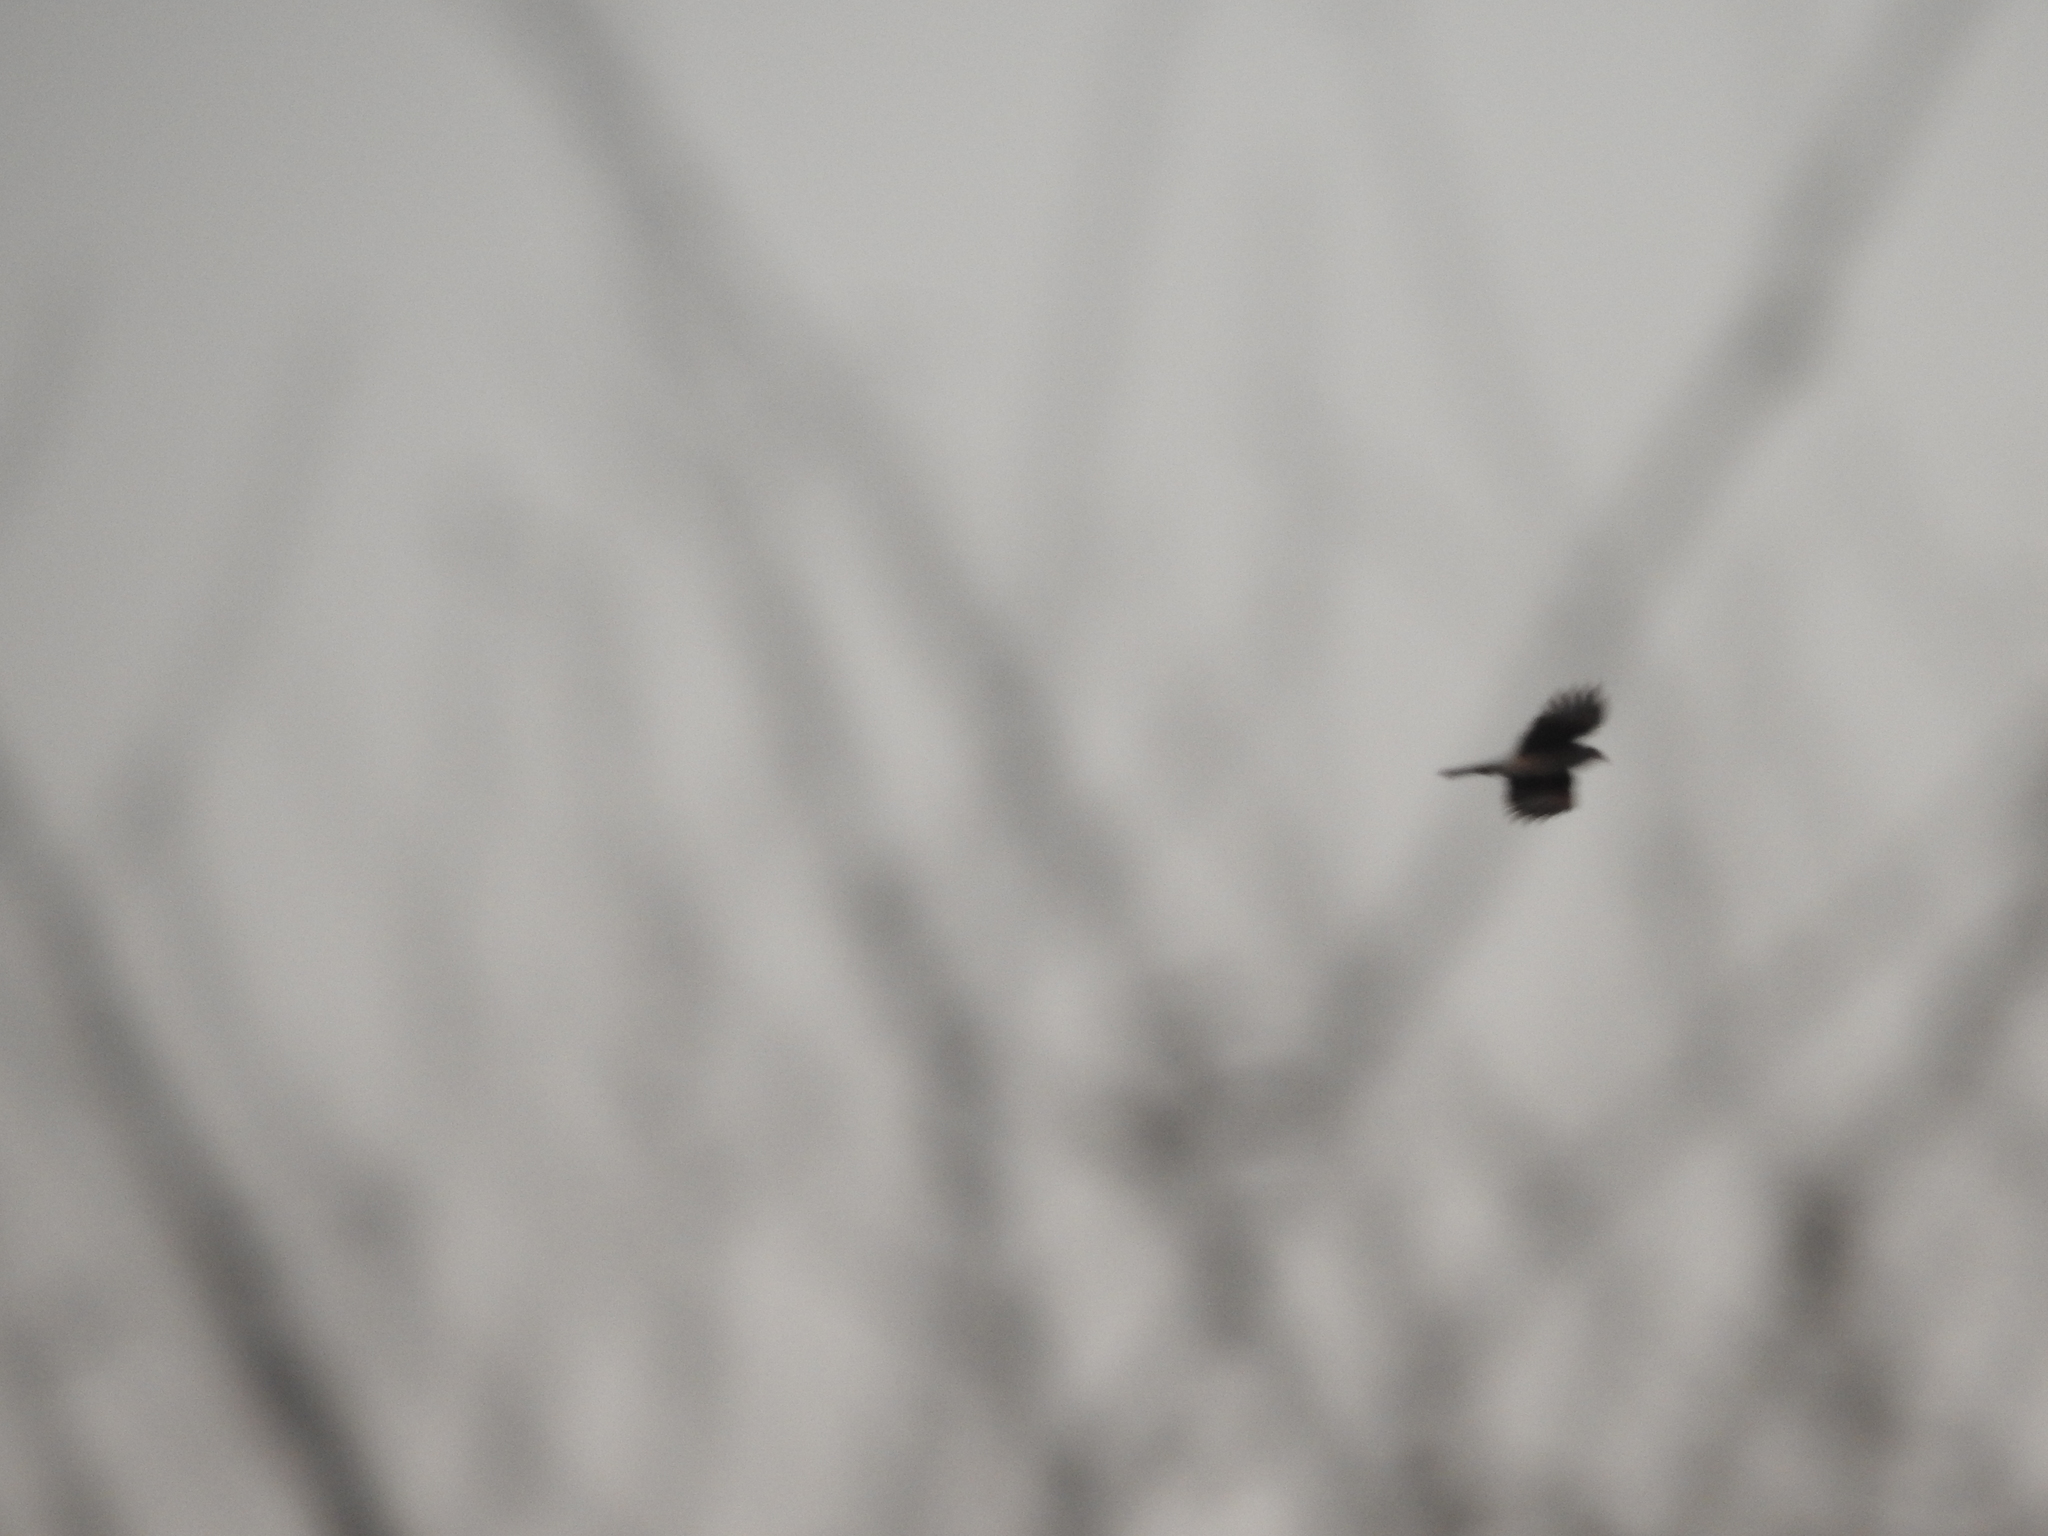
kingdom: Animalia
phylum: Chordata
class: Aves
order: Falconiformes
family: Falconidae
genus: Daptrius
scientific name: Daptrius
